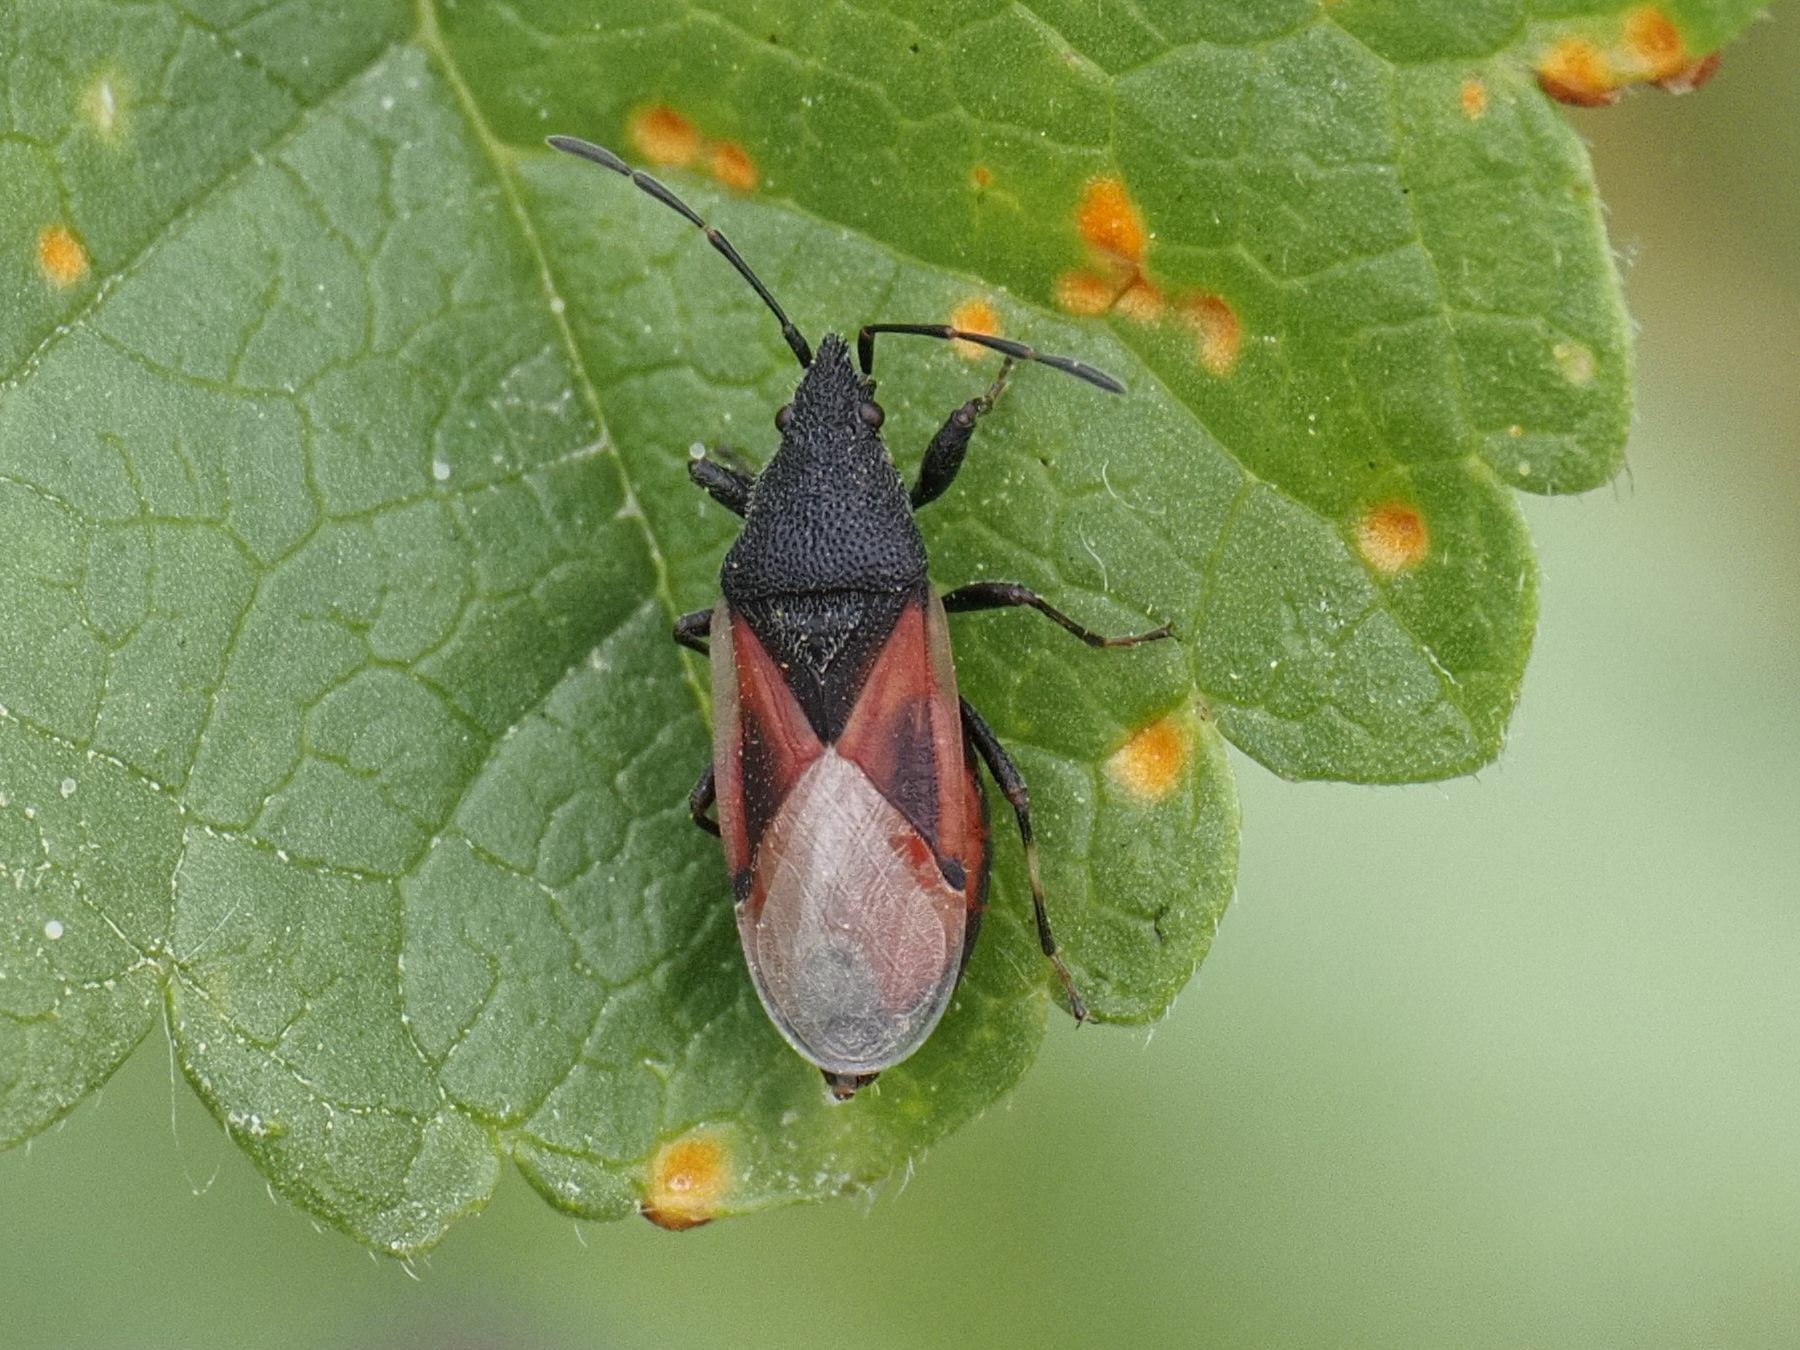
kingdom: Animalia
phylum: Arthropoda
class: Insecta
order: Hemiptera
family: Oxycarenidae
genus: Oxycarenus
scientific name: Oxycarenus lavaterae
